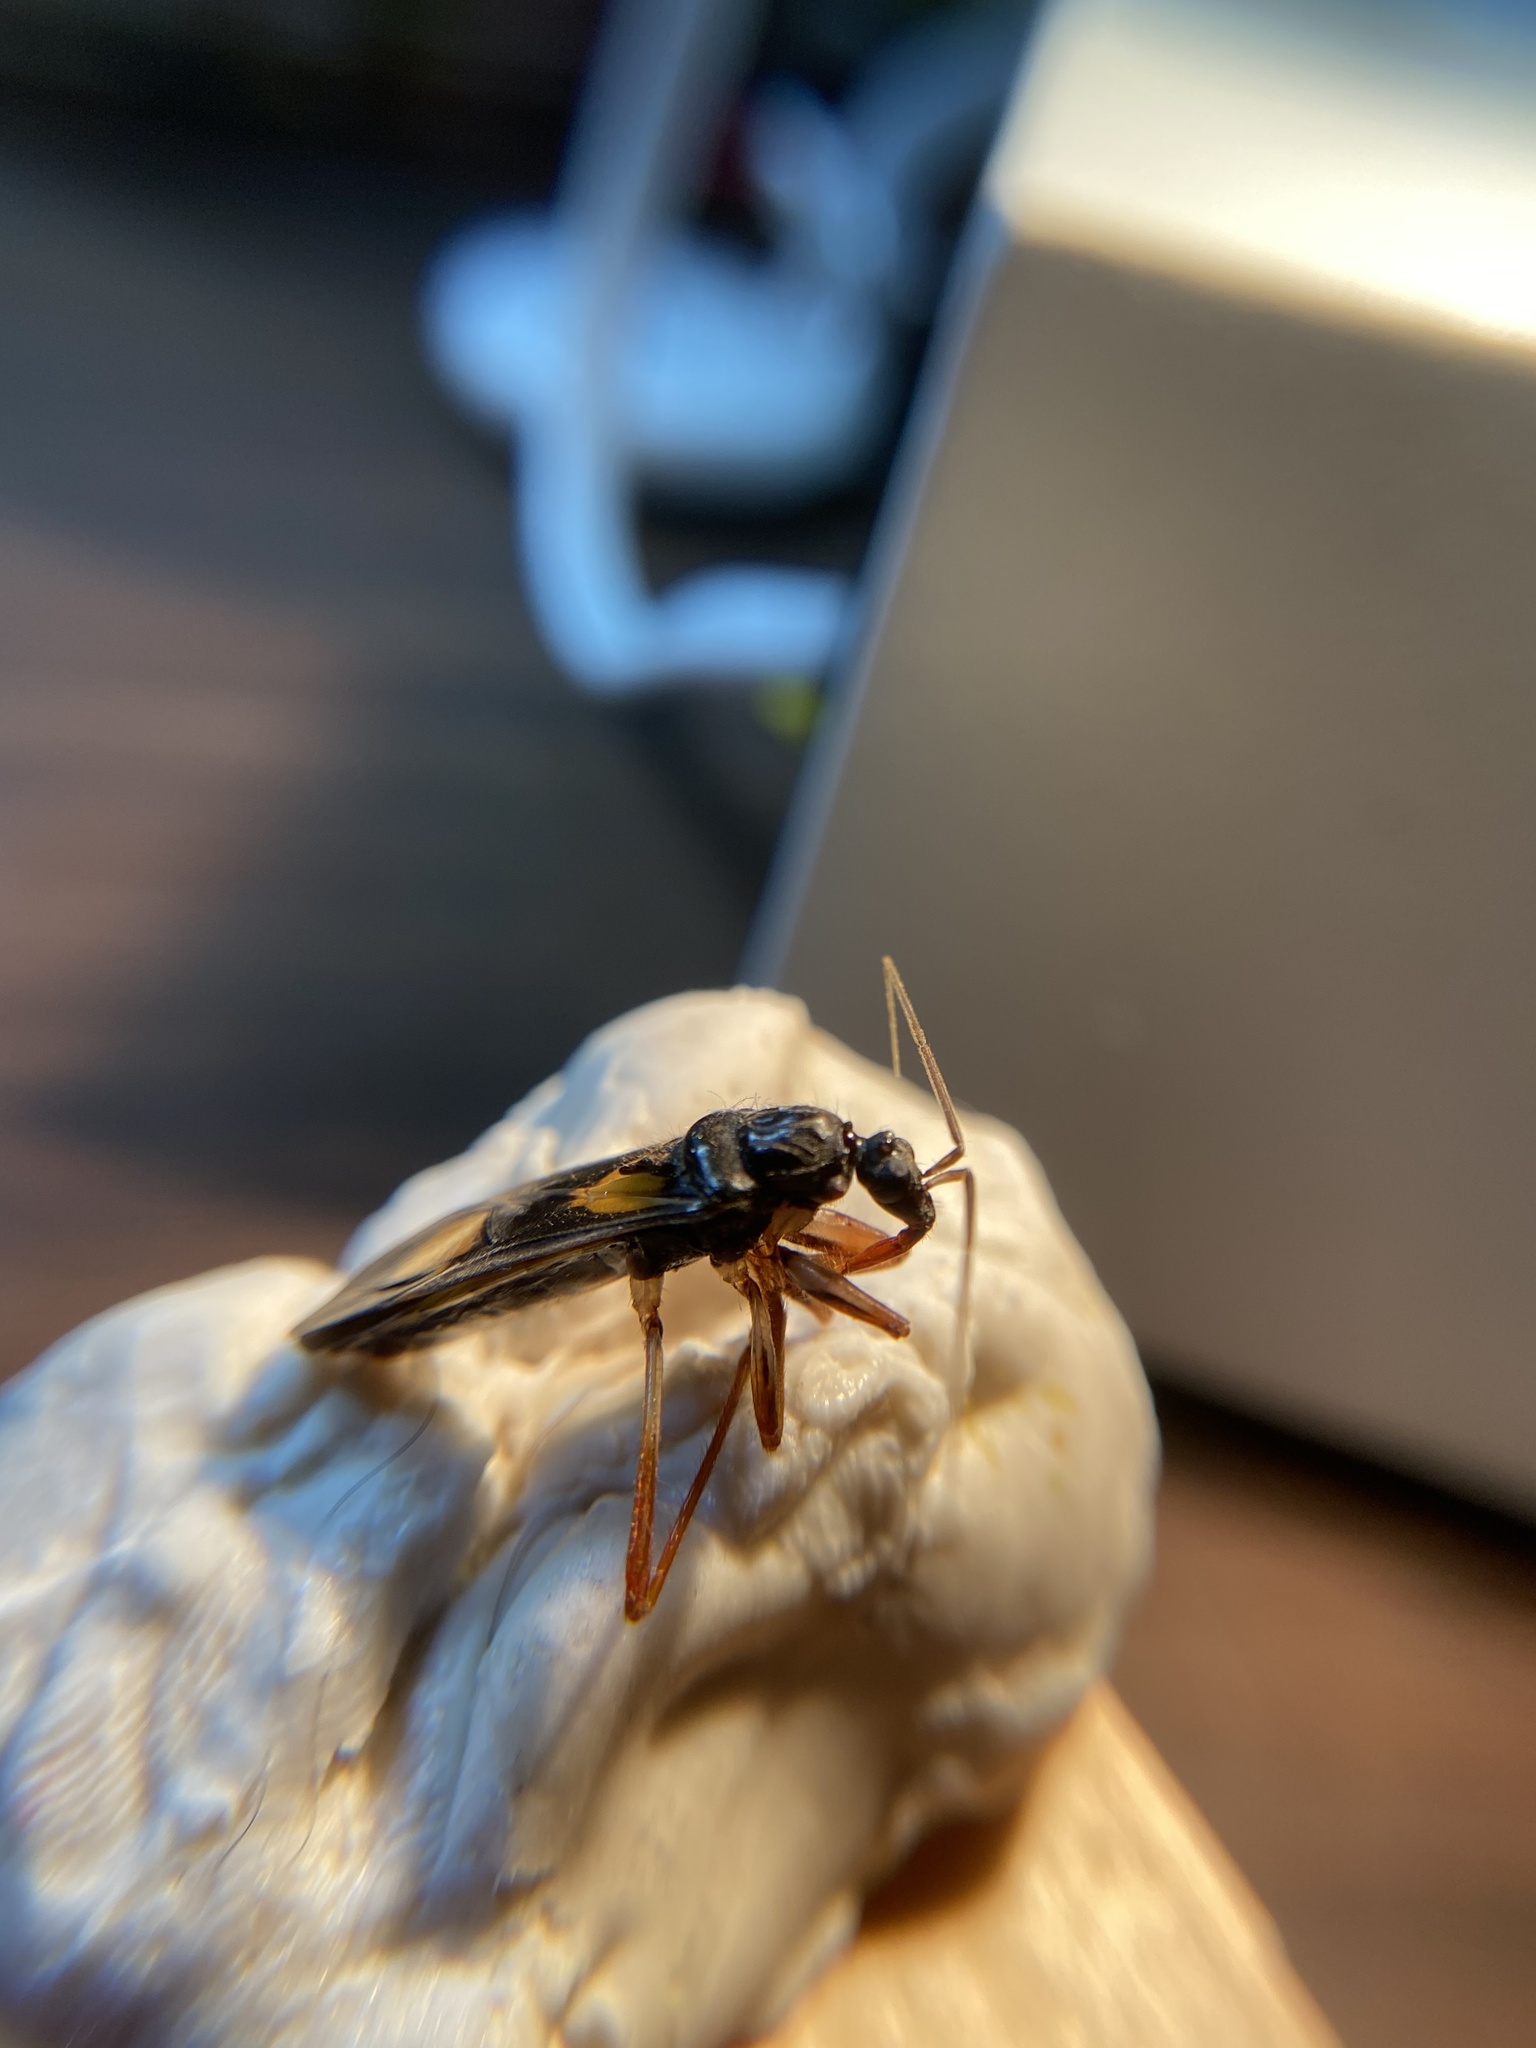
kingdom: Animalia
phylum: Arthropoda
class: Insecta
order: Hemiptera
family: Reduviidae
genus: Rasahus
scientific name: Rasahus hamatus
